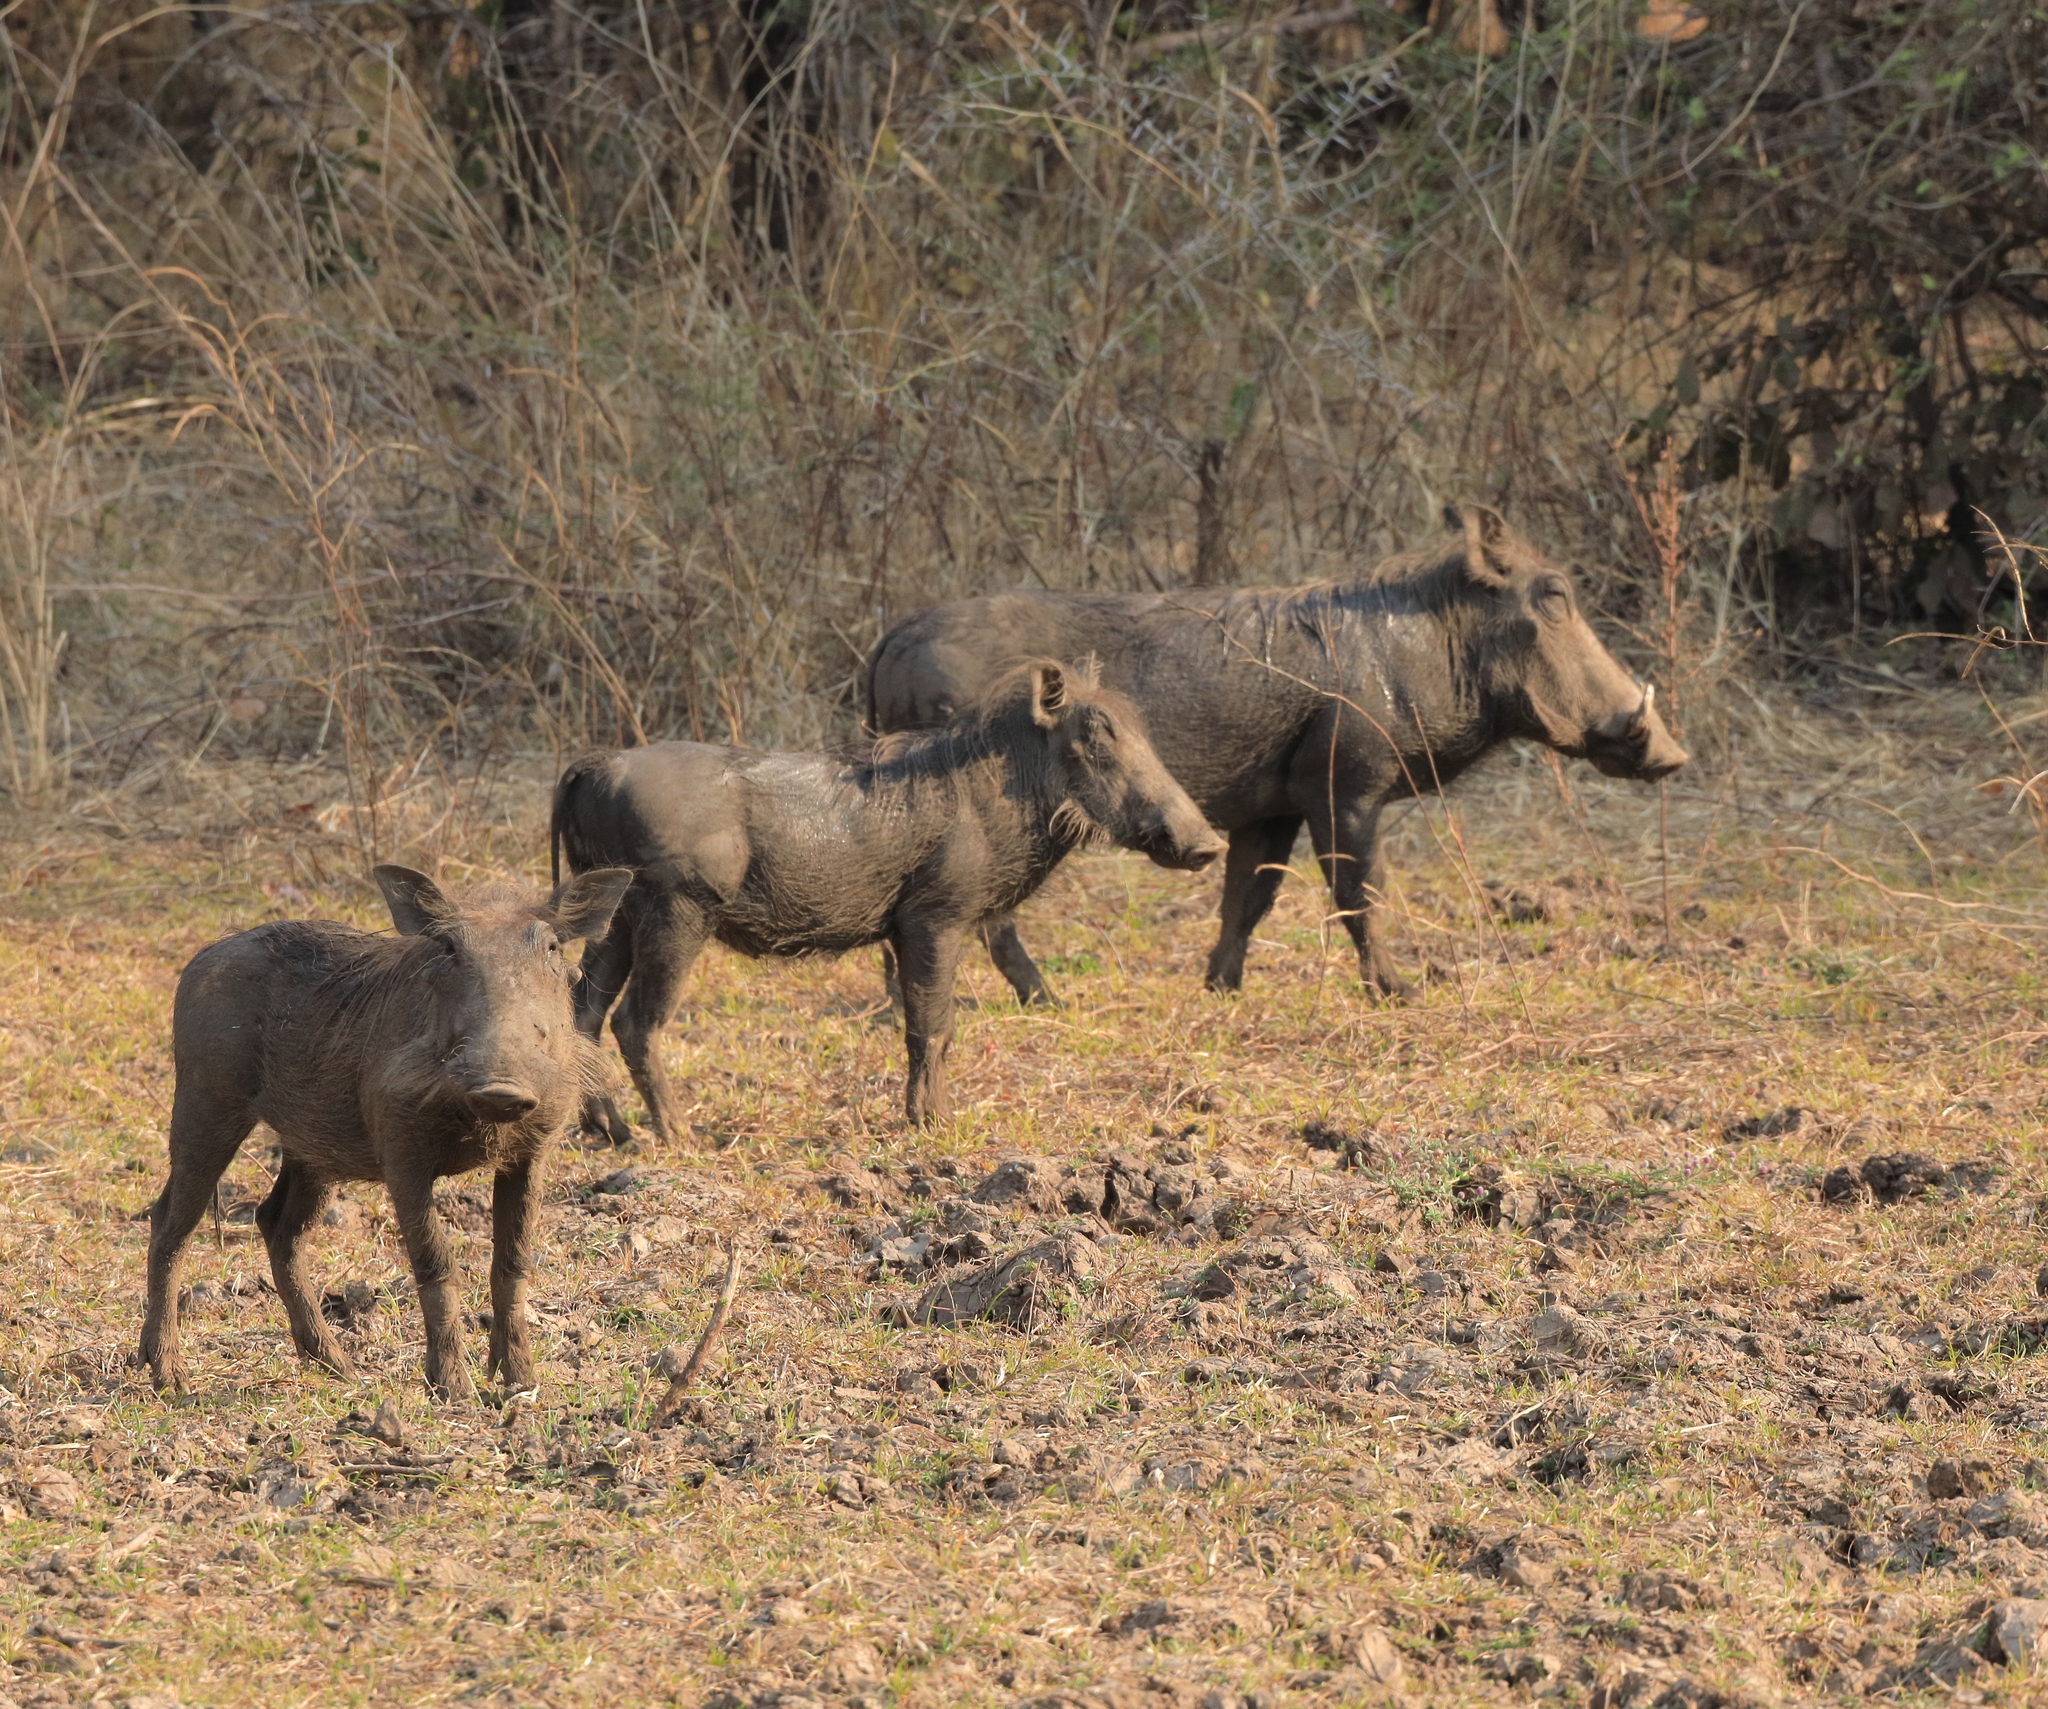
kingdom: Animalia
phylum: Chordata
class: Mammalia
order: Artiodactyla
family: Suidae
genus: Phacochoerus
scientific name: Phacochoerus africanus
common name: Common warthog
